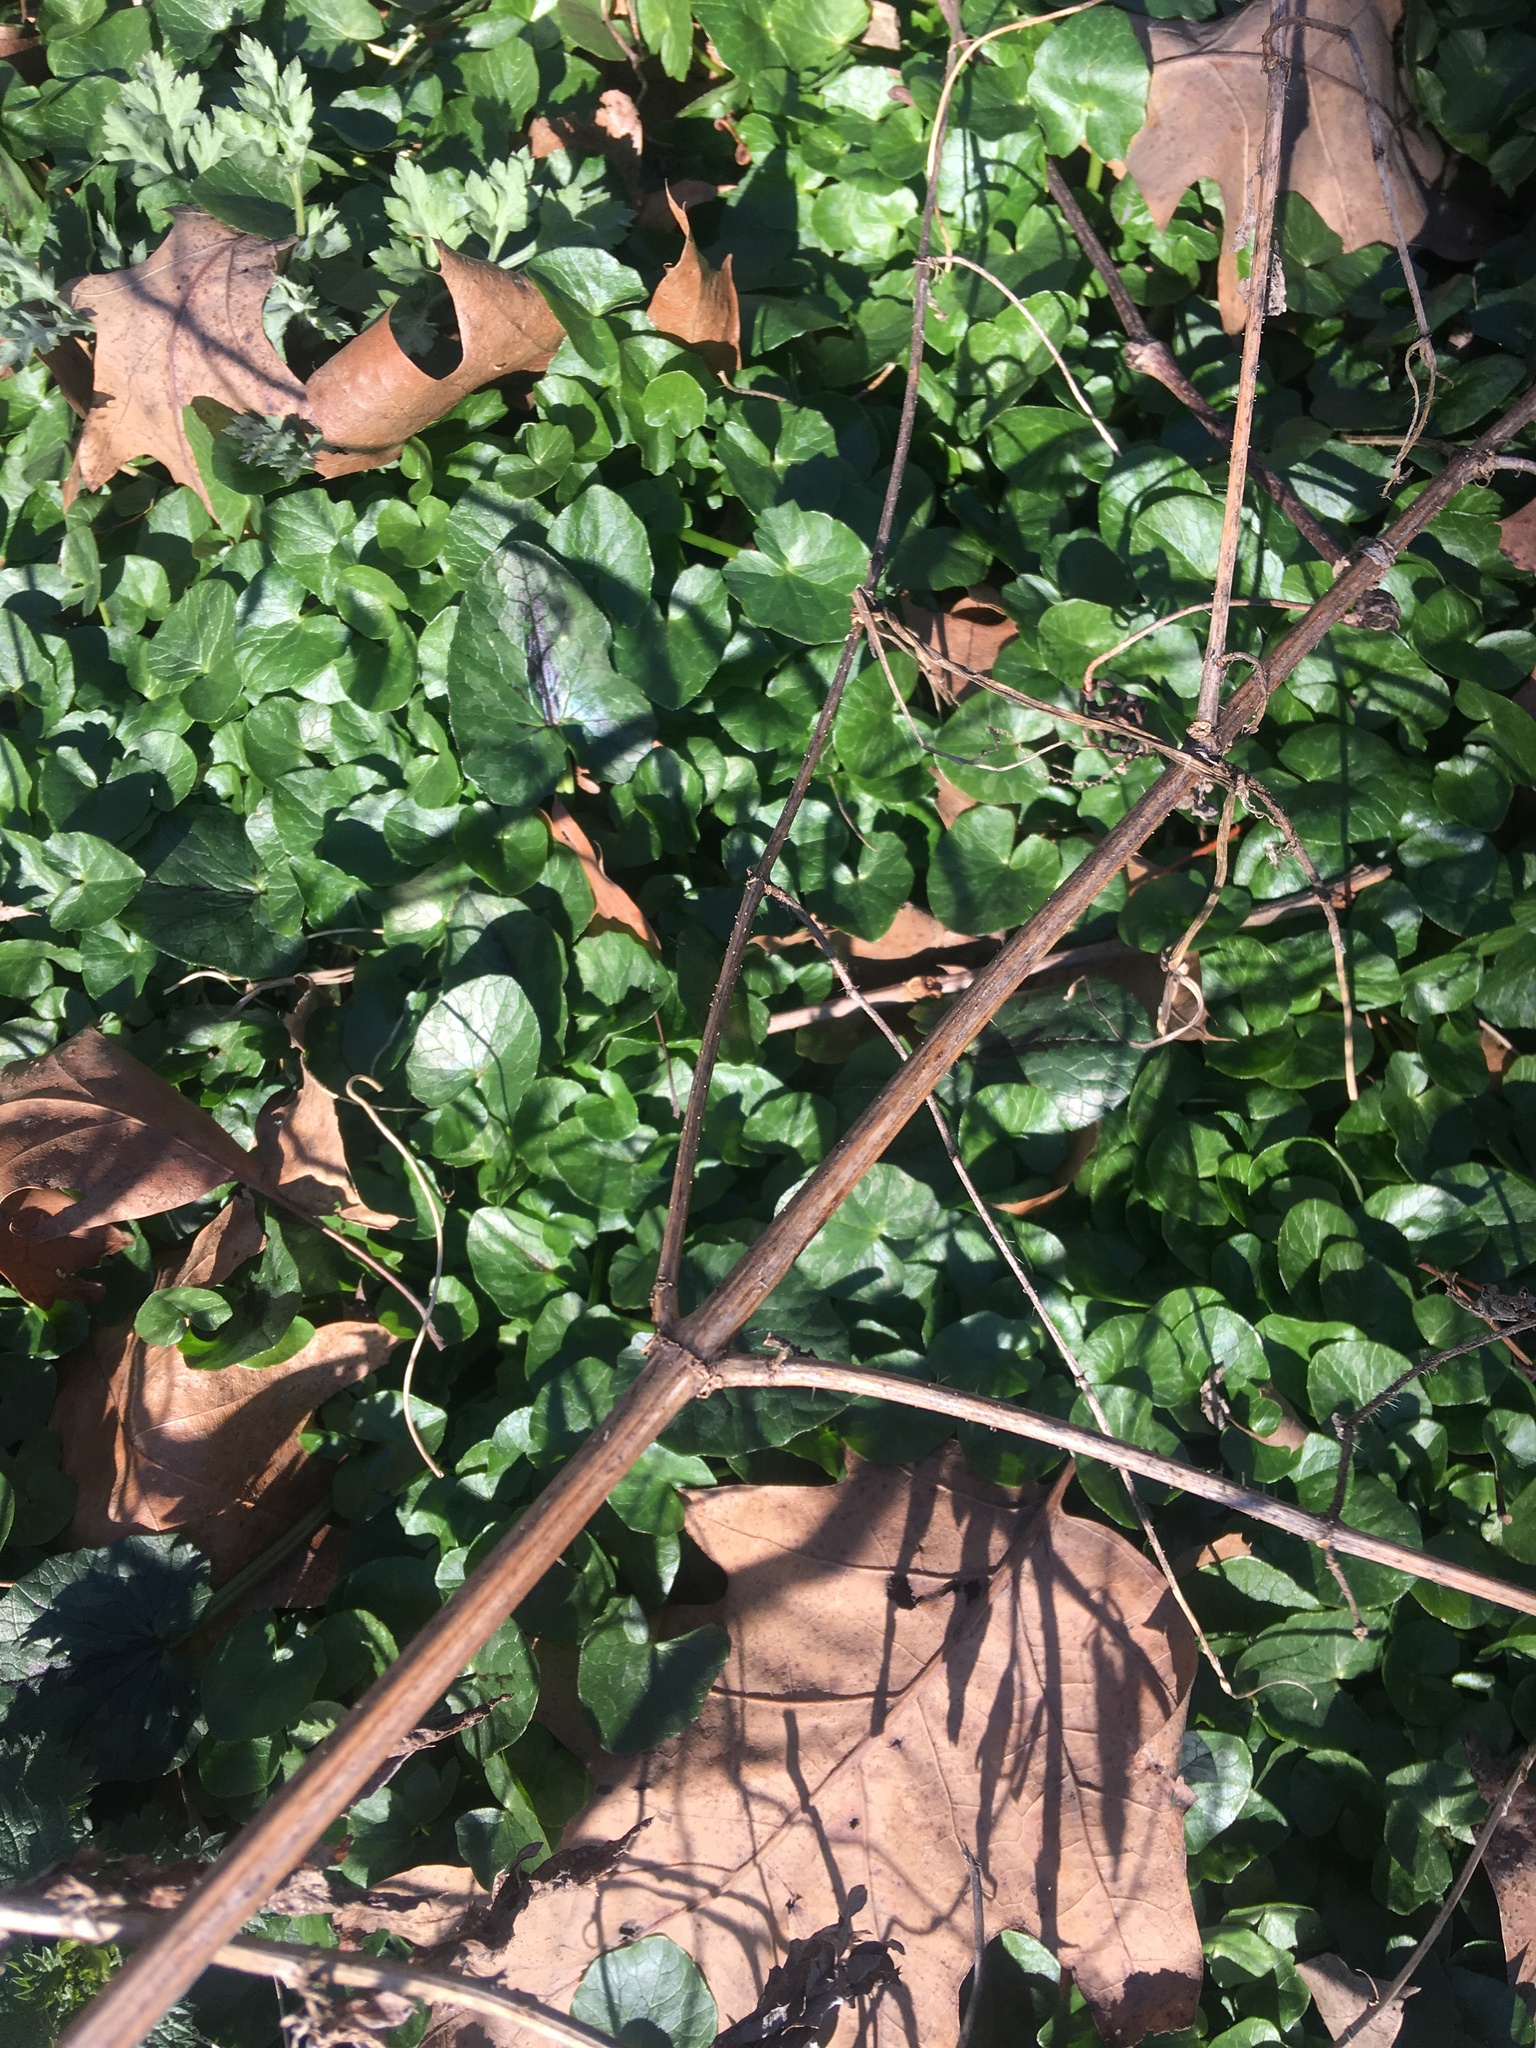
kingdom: Plantae
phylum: Tracheophyta
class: Magnoliopsida
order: Ranunculales
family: Ranunculaceae
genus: Ficaria
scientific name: Ficaria verna
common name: Lesser celandine
